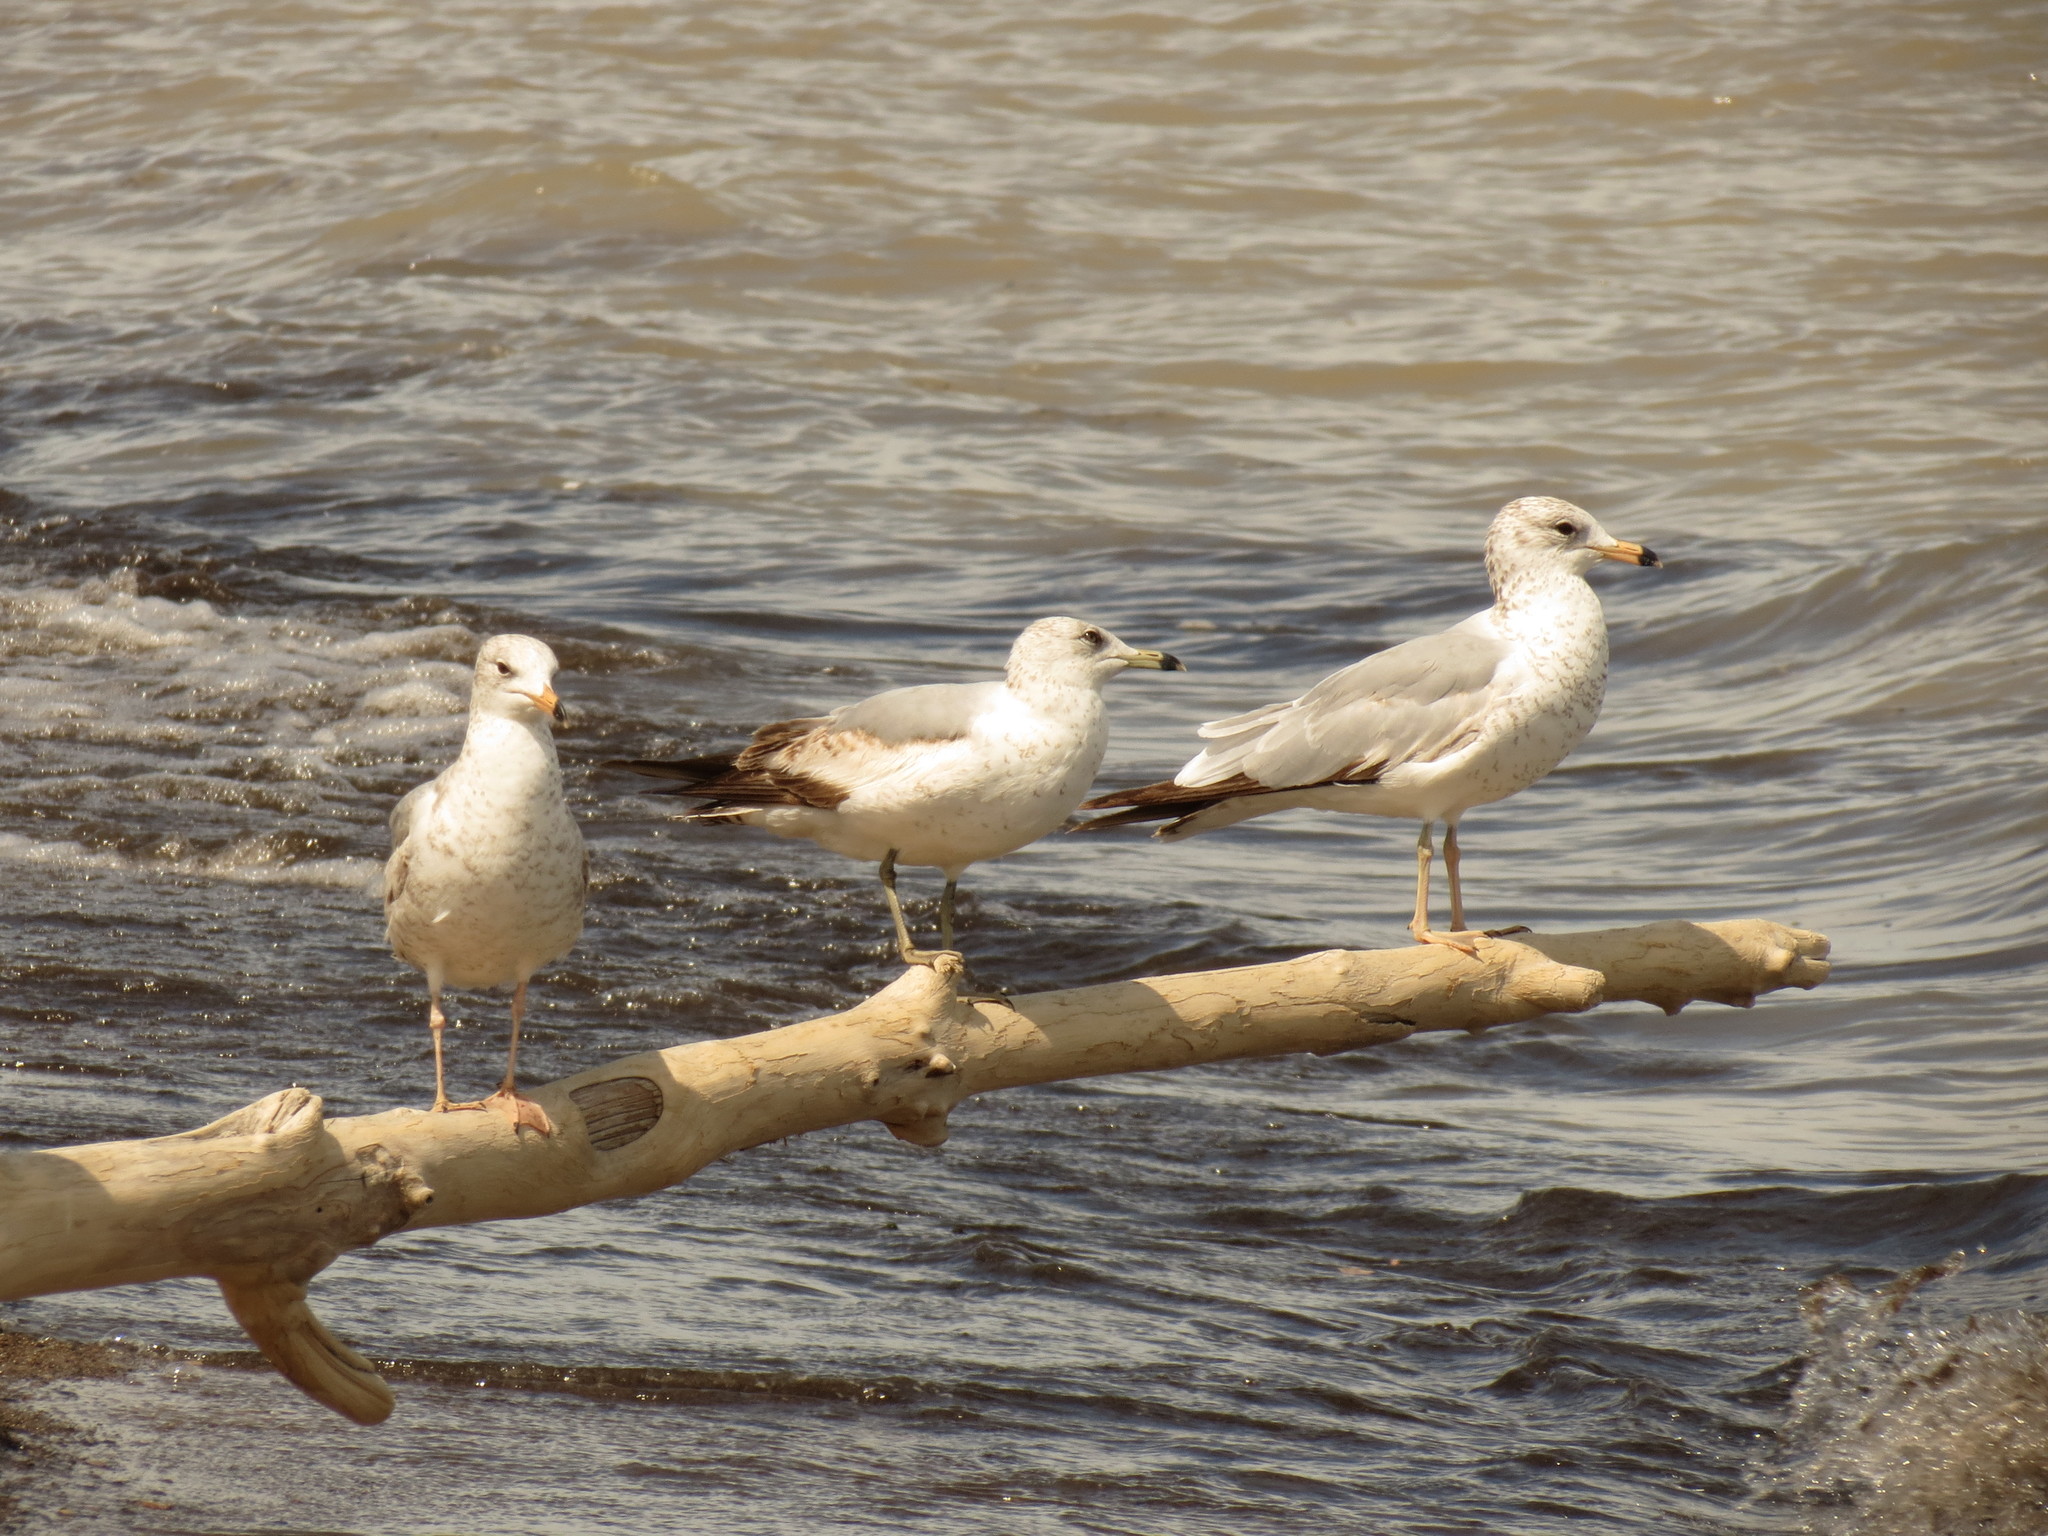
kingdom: Animalia
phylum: Chordata
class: Aves
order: Charadriiformes
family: Laridae
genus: Larus
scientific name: Larus delawarensis
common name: Ring-billed gull
